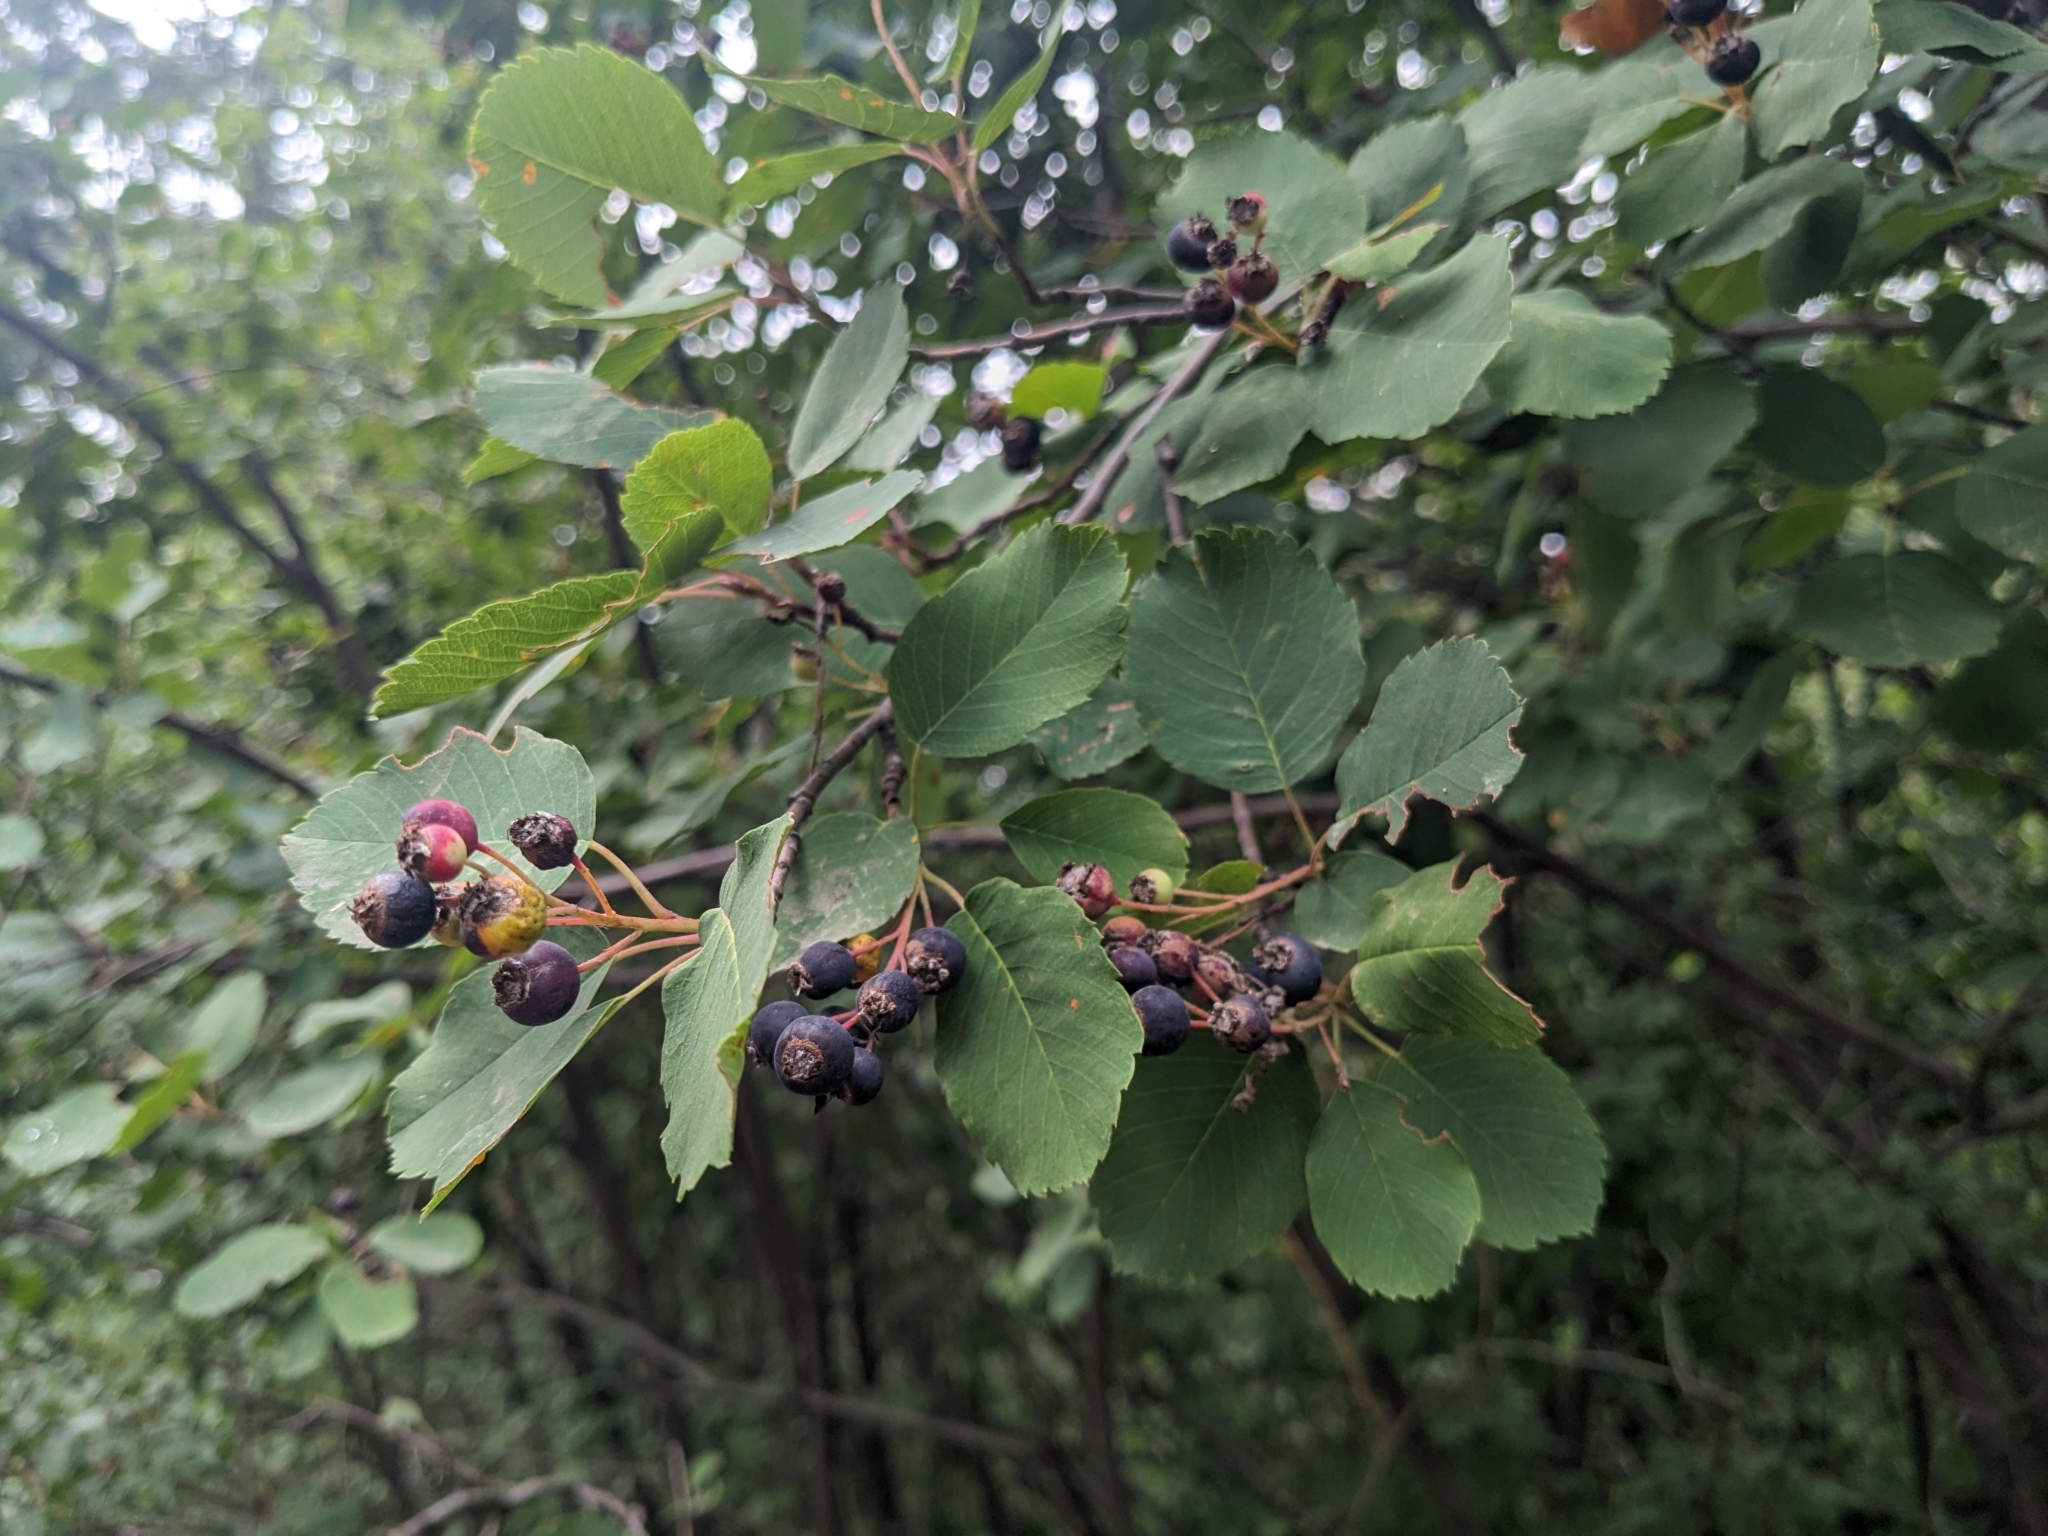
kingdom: Plantae
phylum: Tracheophyta
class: Magnoliopsida
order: Rosales
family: Rosaceae
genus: Amelanchier
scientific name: Amelanchier alnifolia
